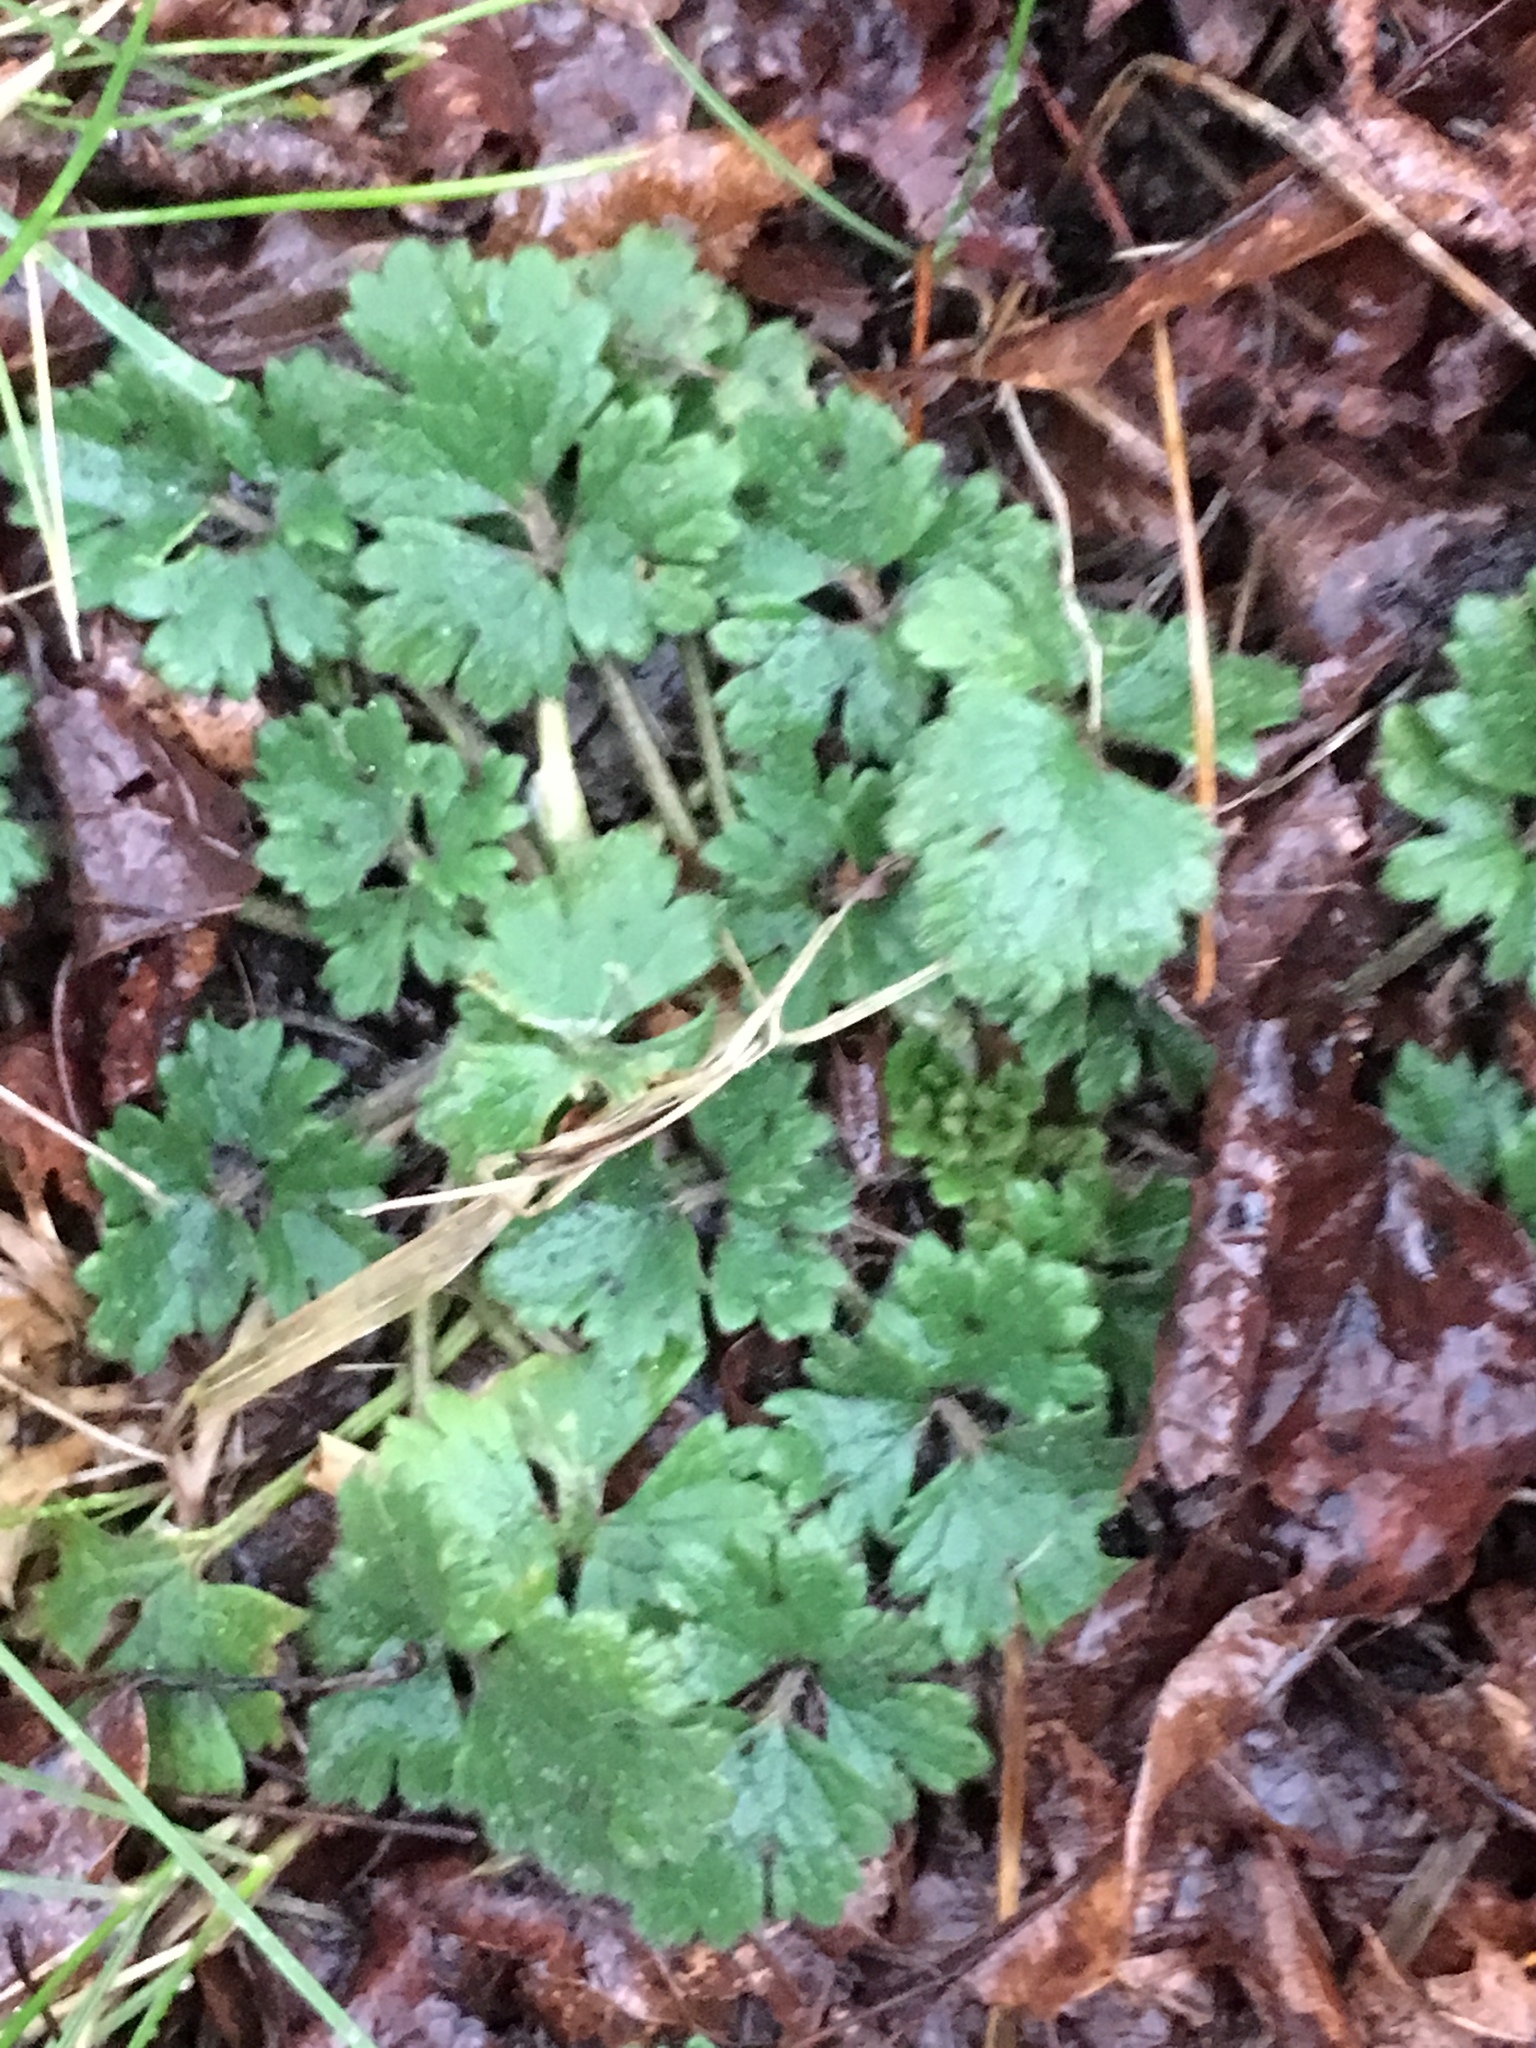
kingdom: Plantae
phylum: Tracheophyta
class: Magnoliopsida
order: Ranunculales
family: Ranunculaceae
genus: Ranunculus
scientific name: Ranunculus repens
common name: Creeping buttercup
